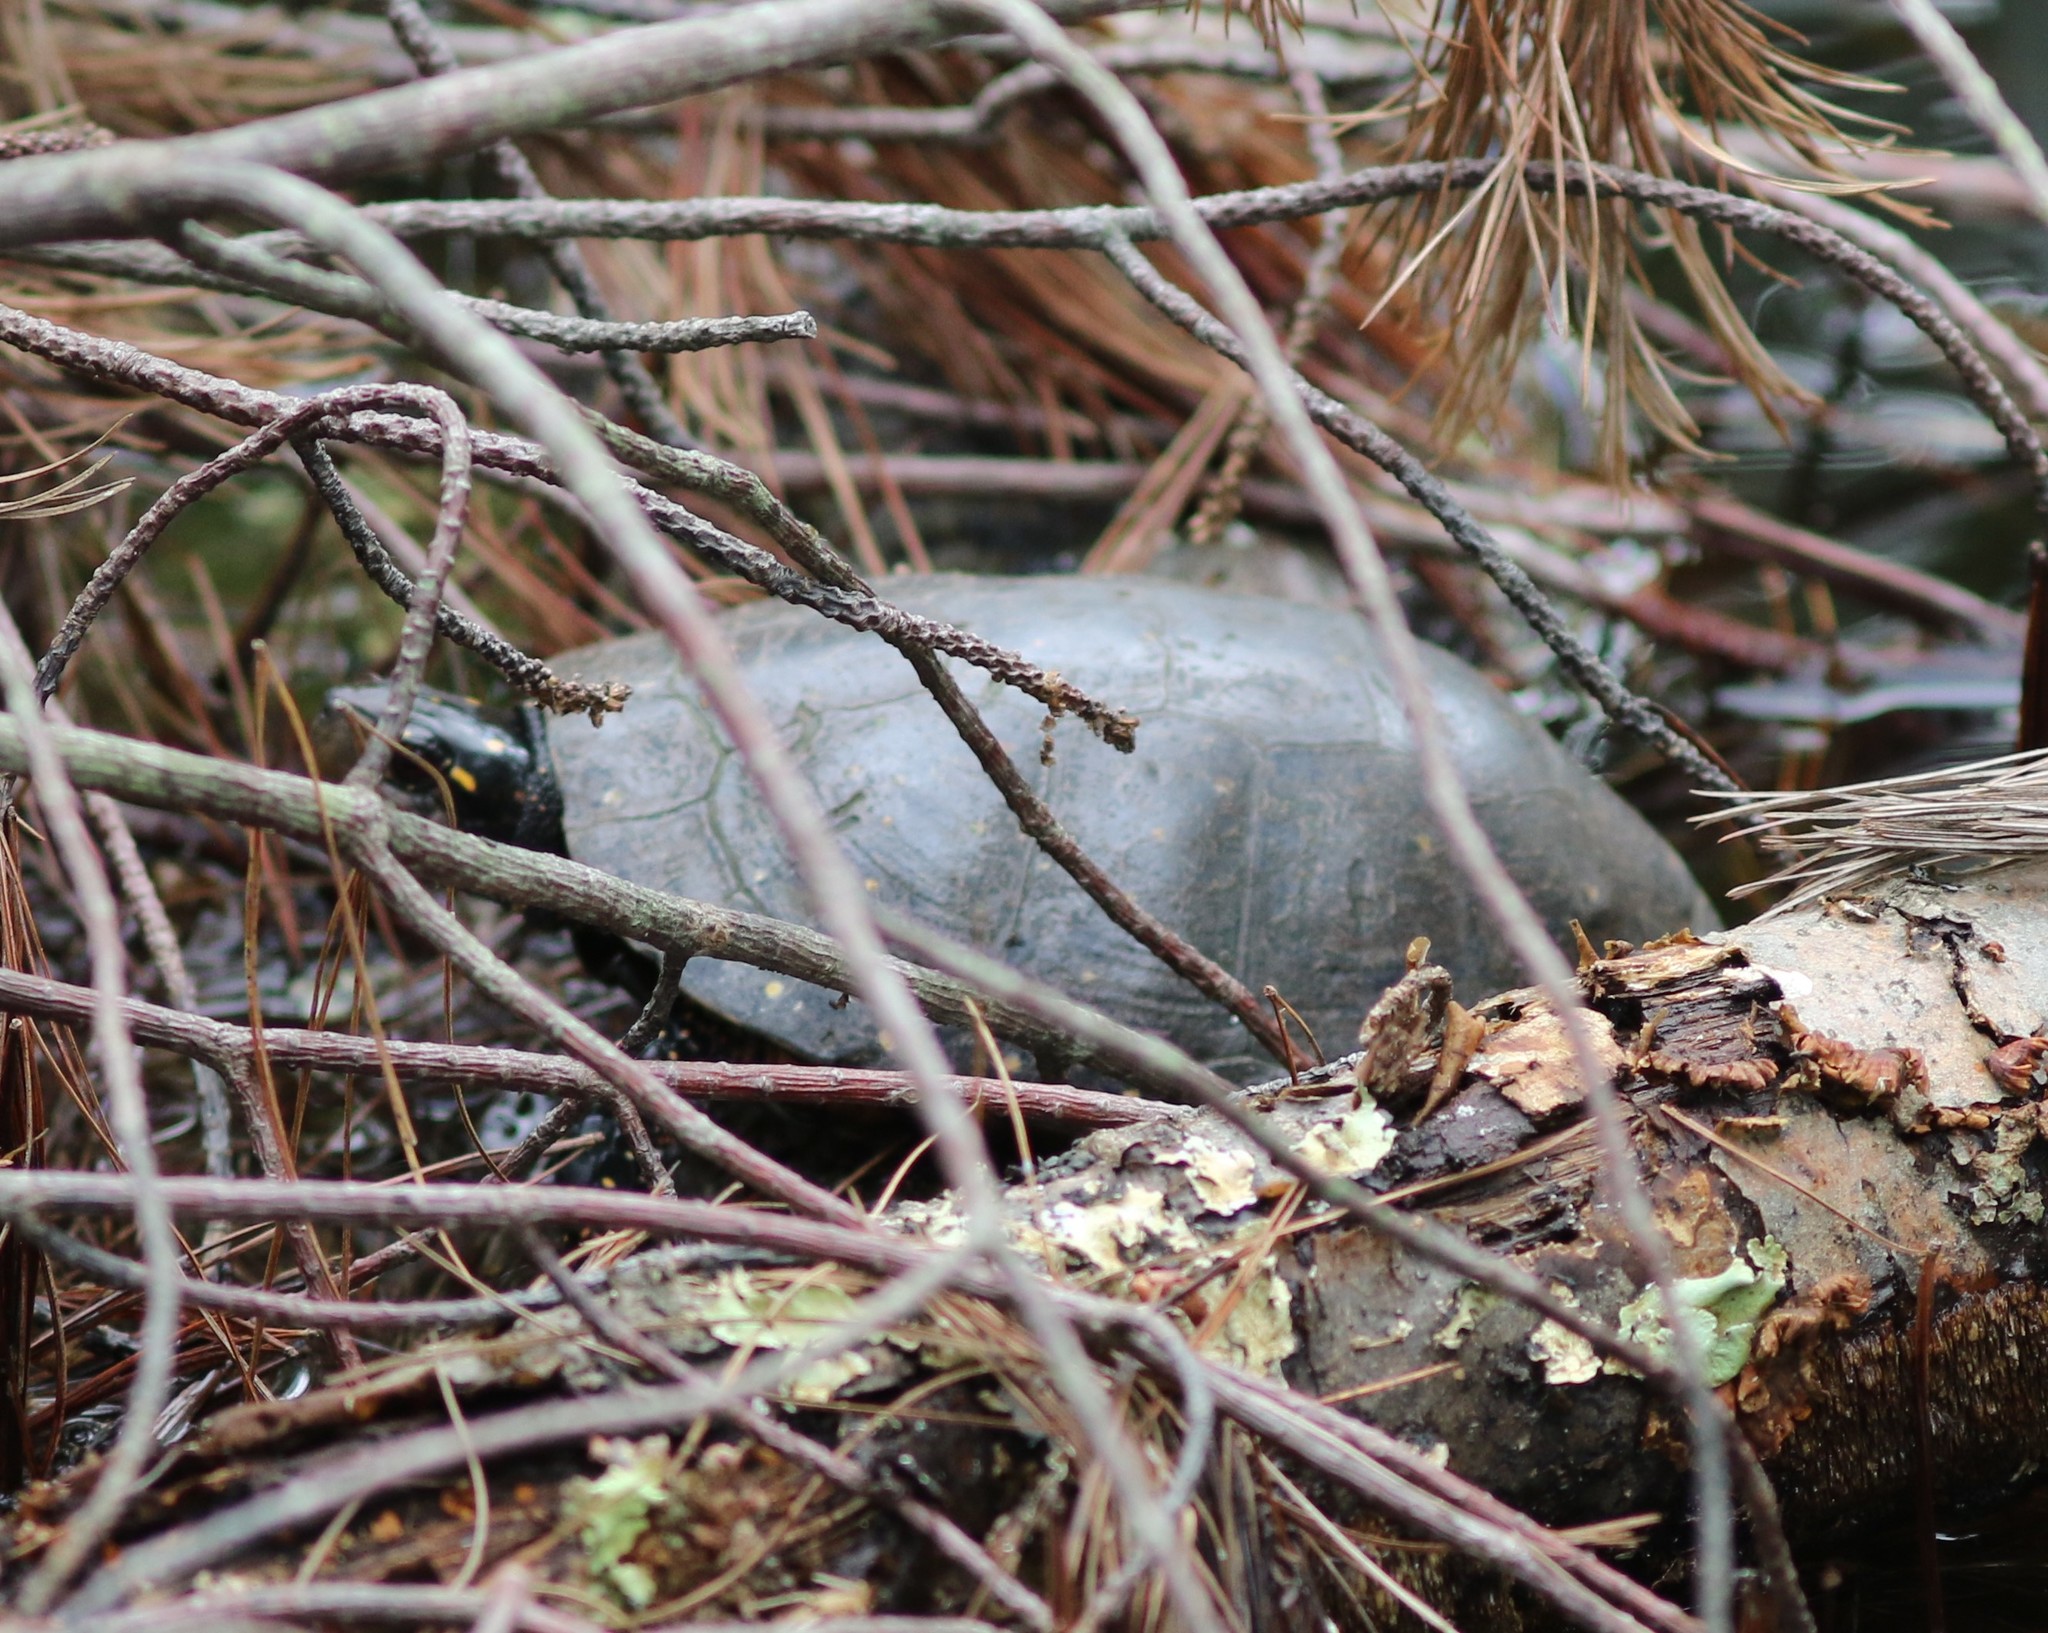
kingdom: Animalia
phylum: Chordata
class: Testudines
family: Emydidae
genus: Clemmys
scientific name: Clemmys guttata
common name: Spotted turtle
